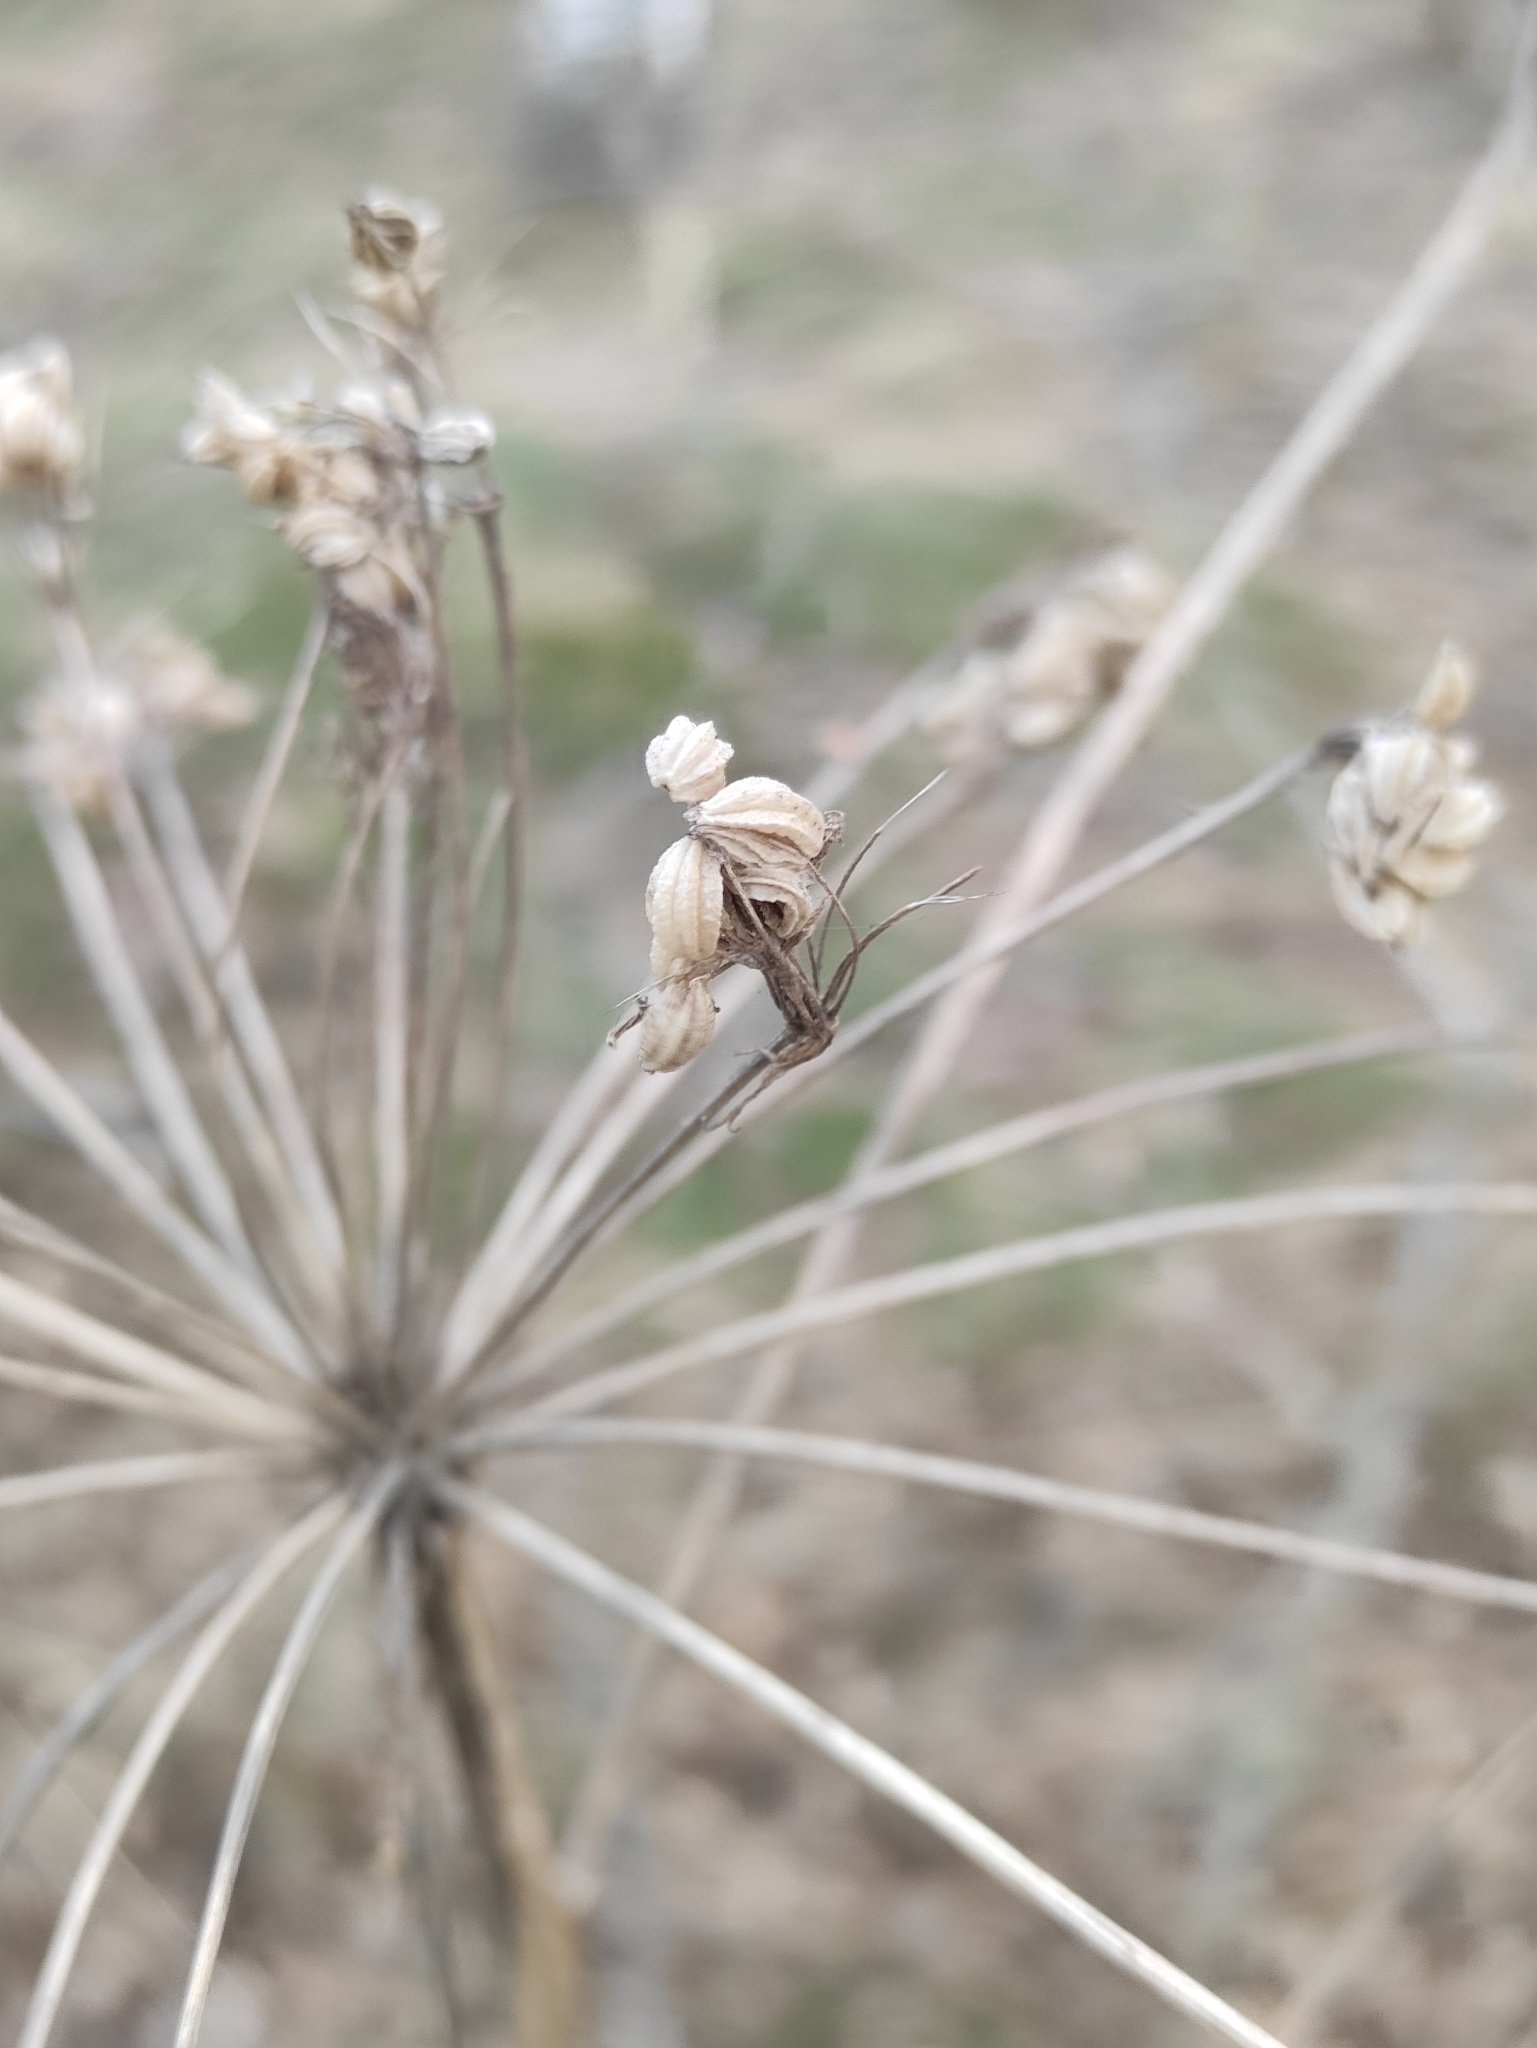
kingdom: Plantae
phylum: Tracheophyta
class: Magnoliopsida
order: Apiales
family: Apiaceae
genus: Pleurospermum
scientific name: Pleurospermum uralense
